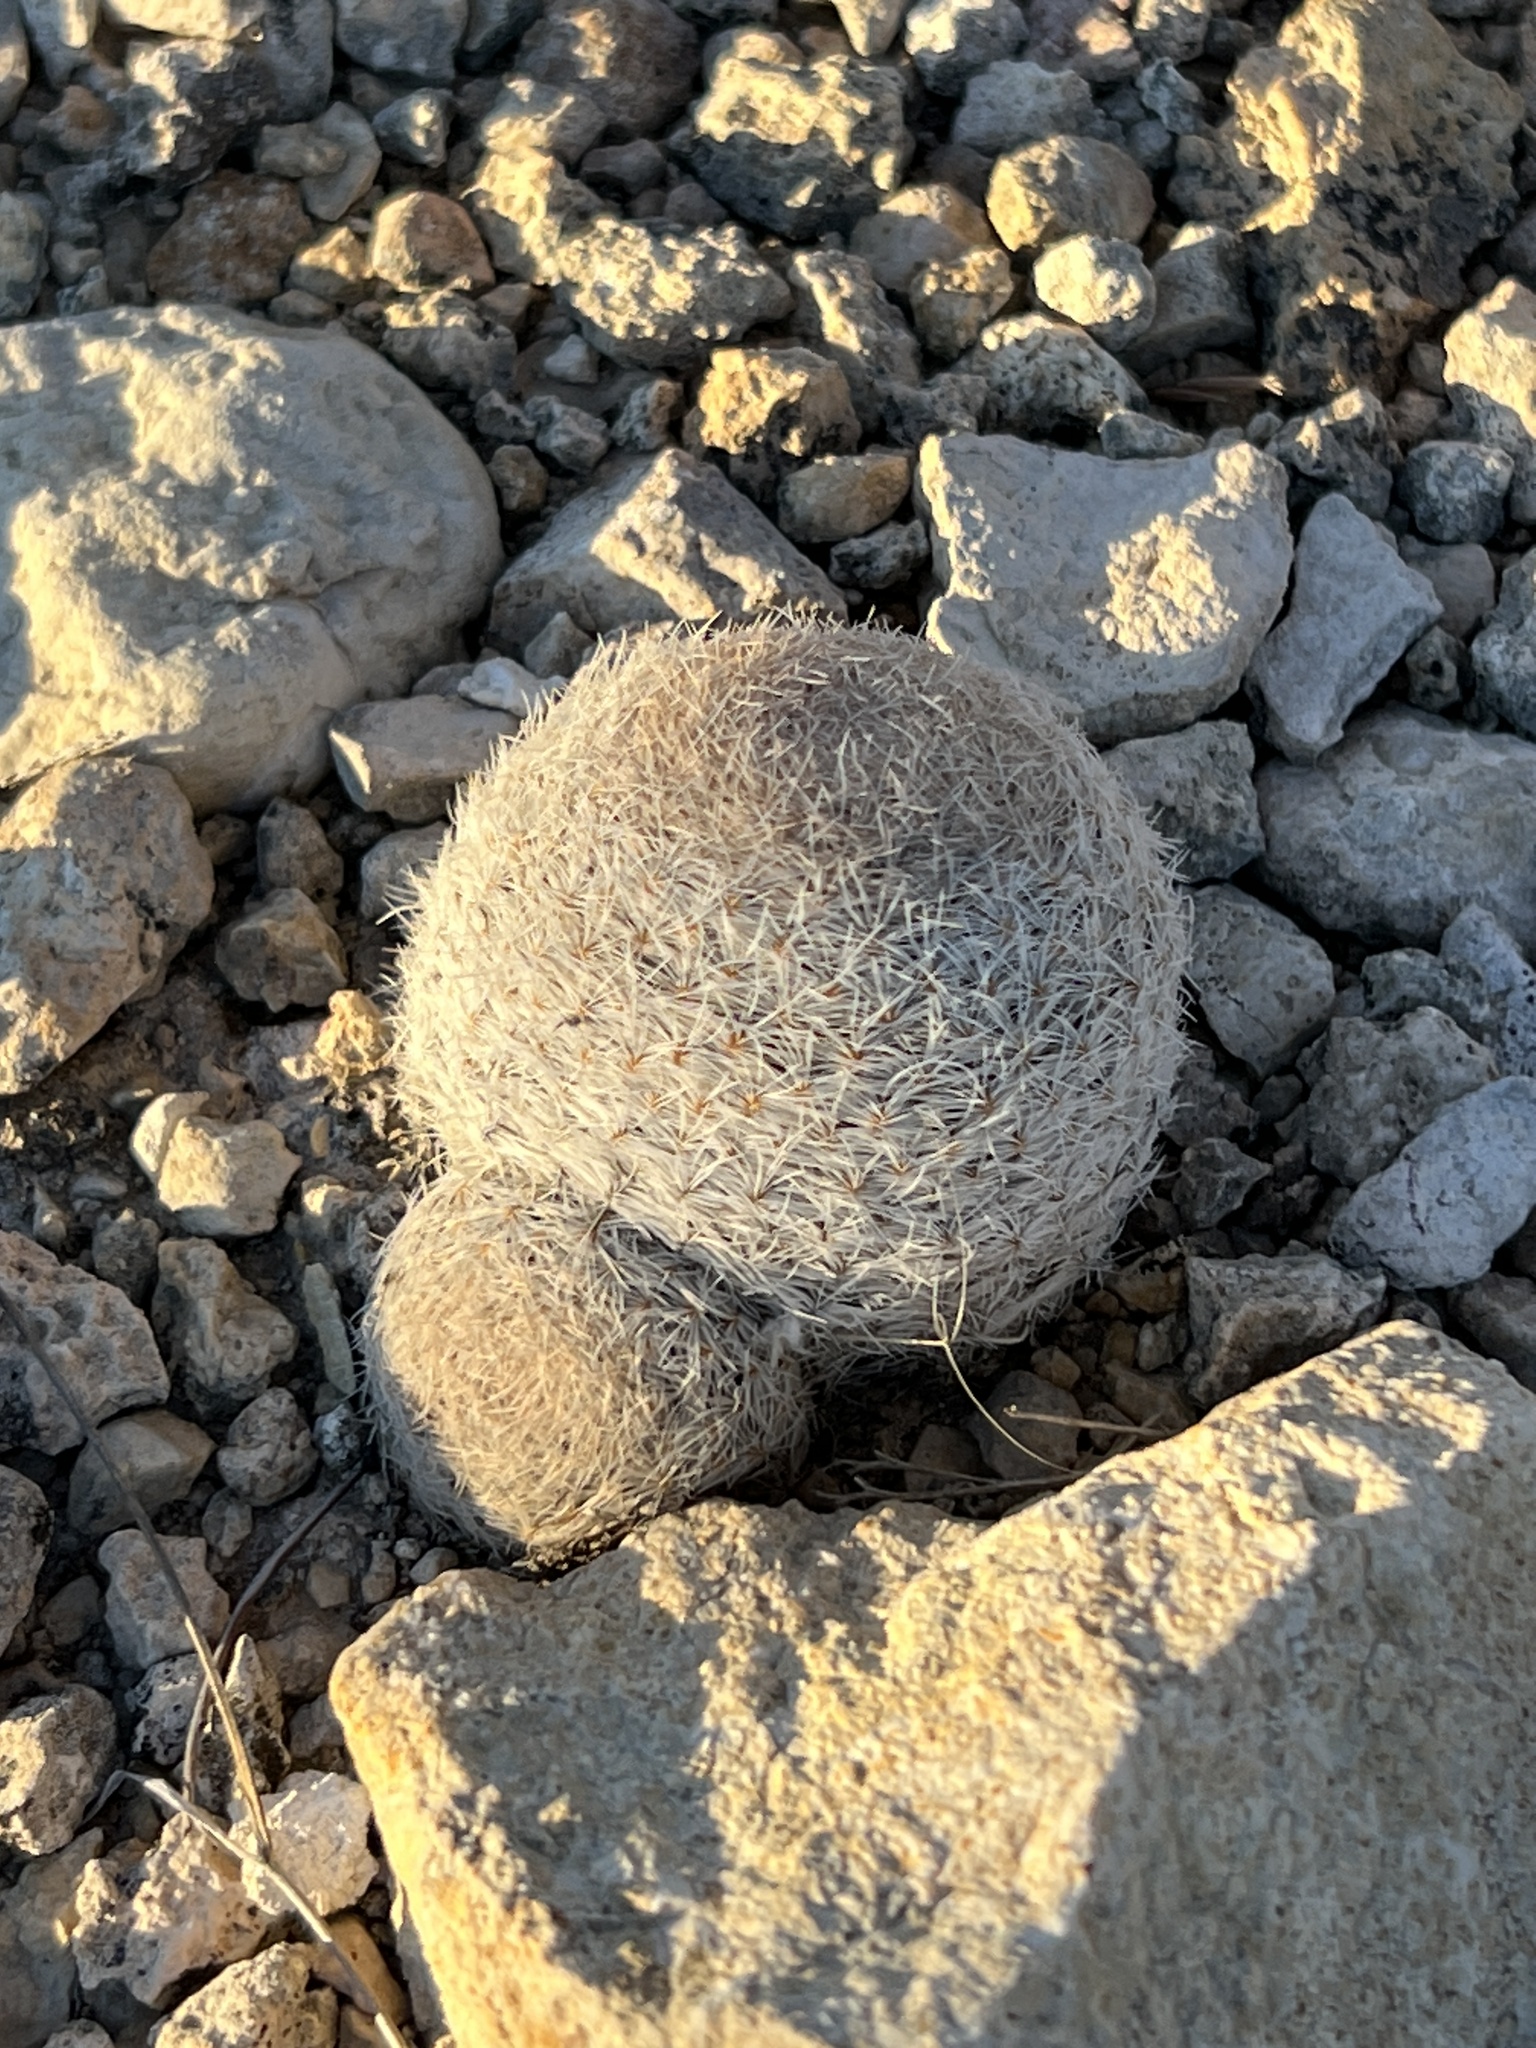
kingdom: Plantae
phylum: Tracheophyta
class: Magnoliopsida
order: Caryophyllales
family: Cactaceae
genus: Mammillaria
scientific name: Mammillaria lasiacantha
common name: Lace-spine nipple cactus
